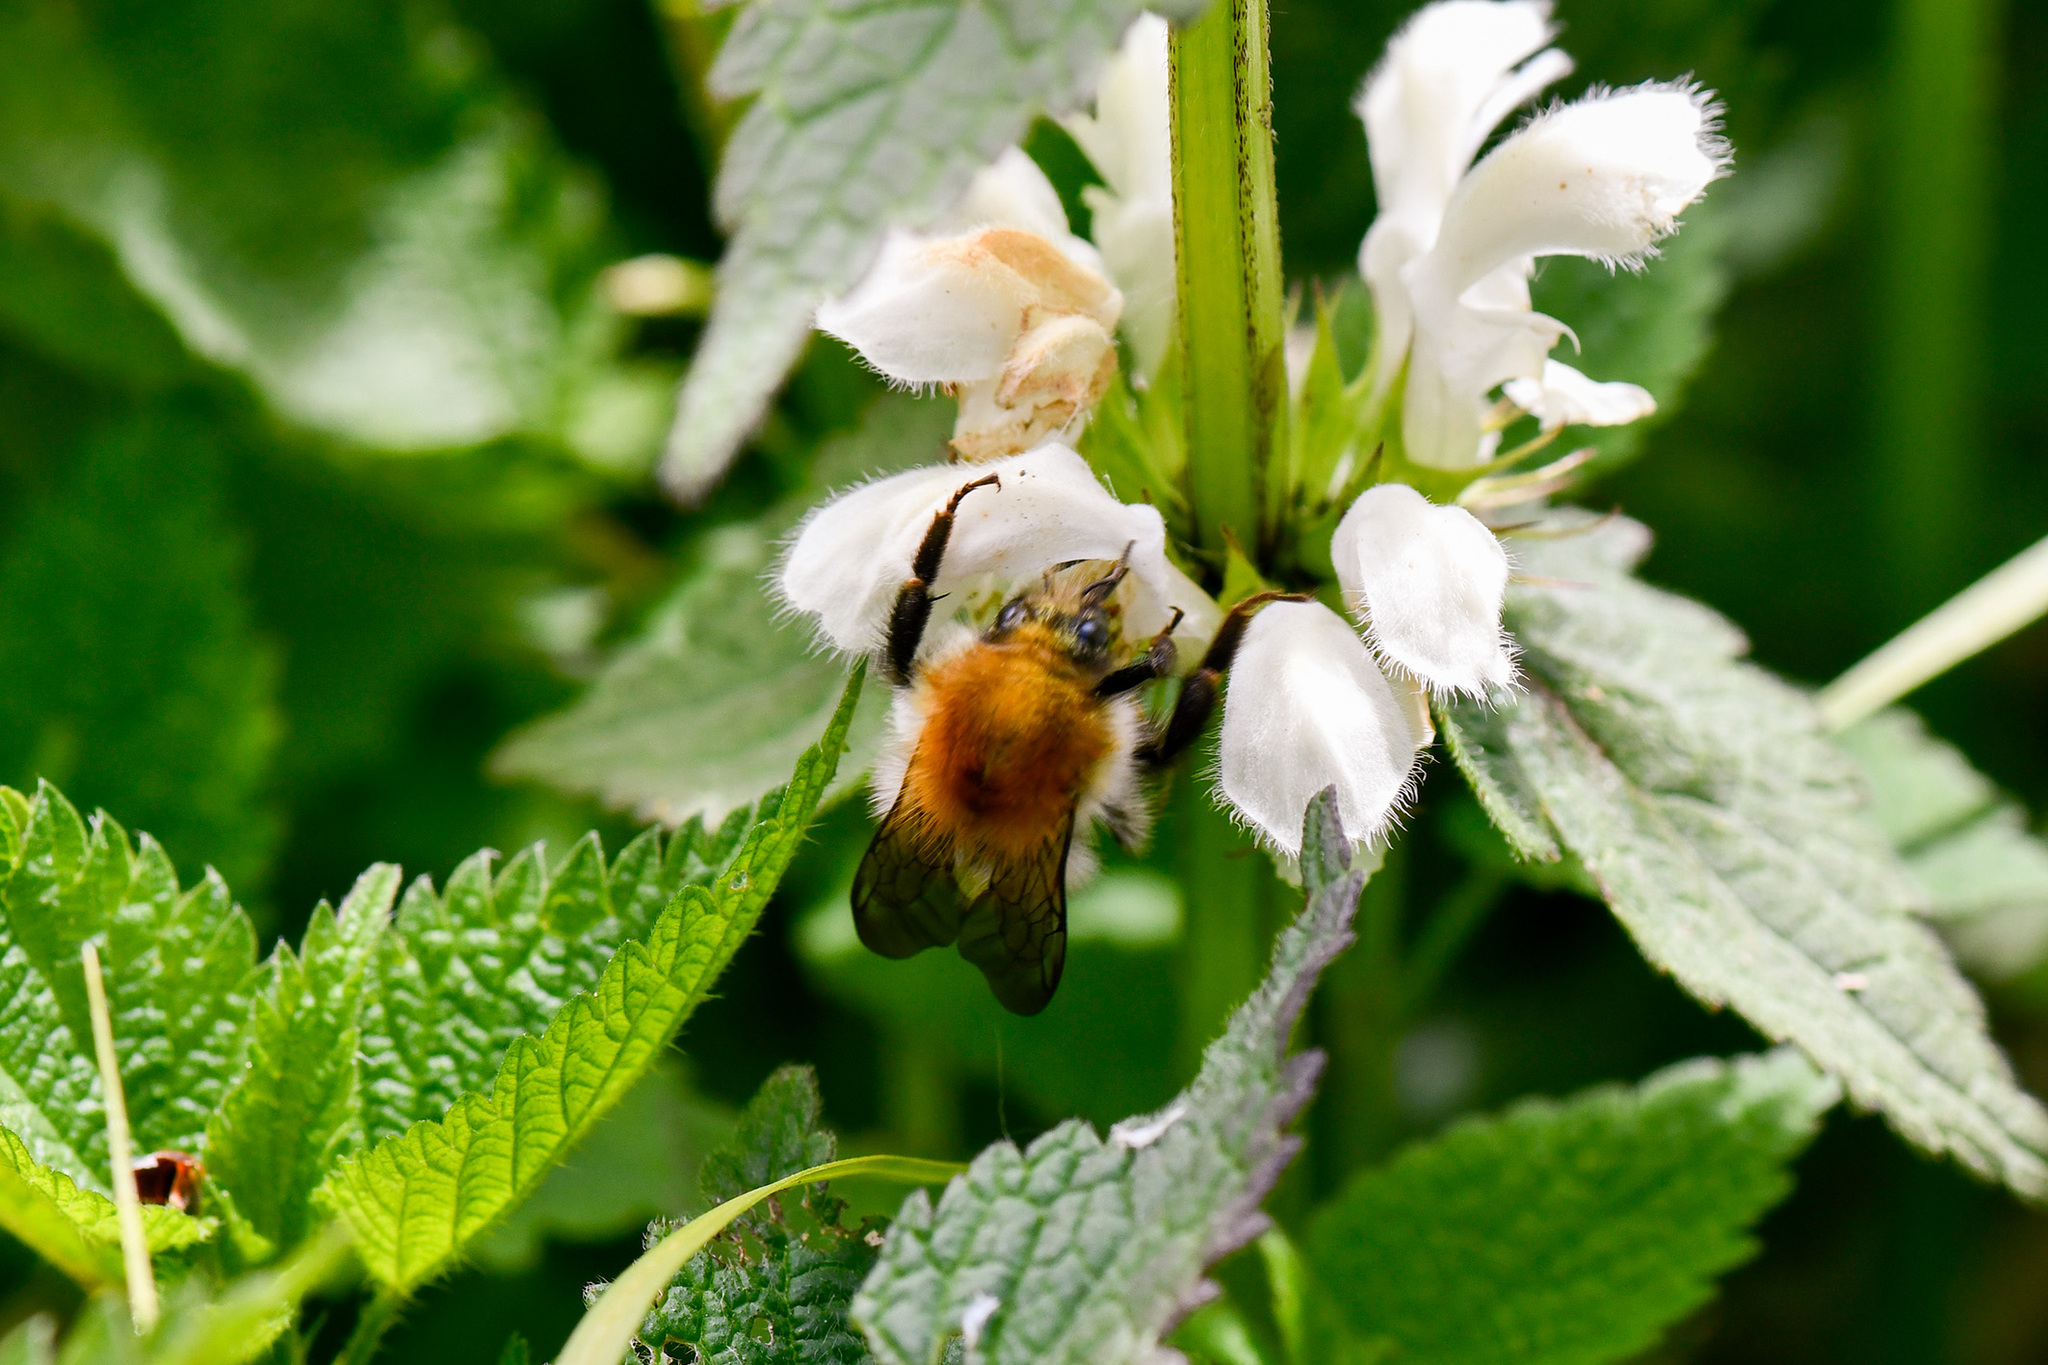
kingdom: Animalia
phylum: Arthropoda
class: Insecta
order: Hymenoptera
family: Apidae
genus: Bombus
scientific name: Bombus pascuorum
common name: Common carder bee
